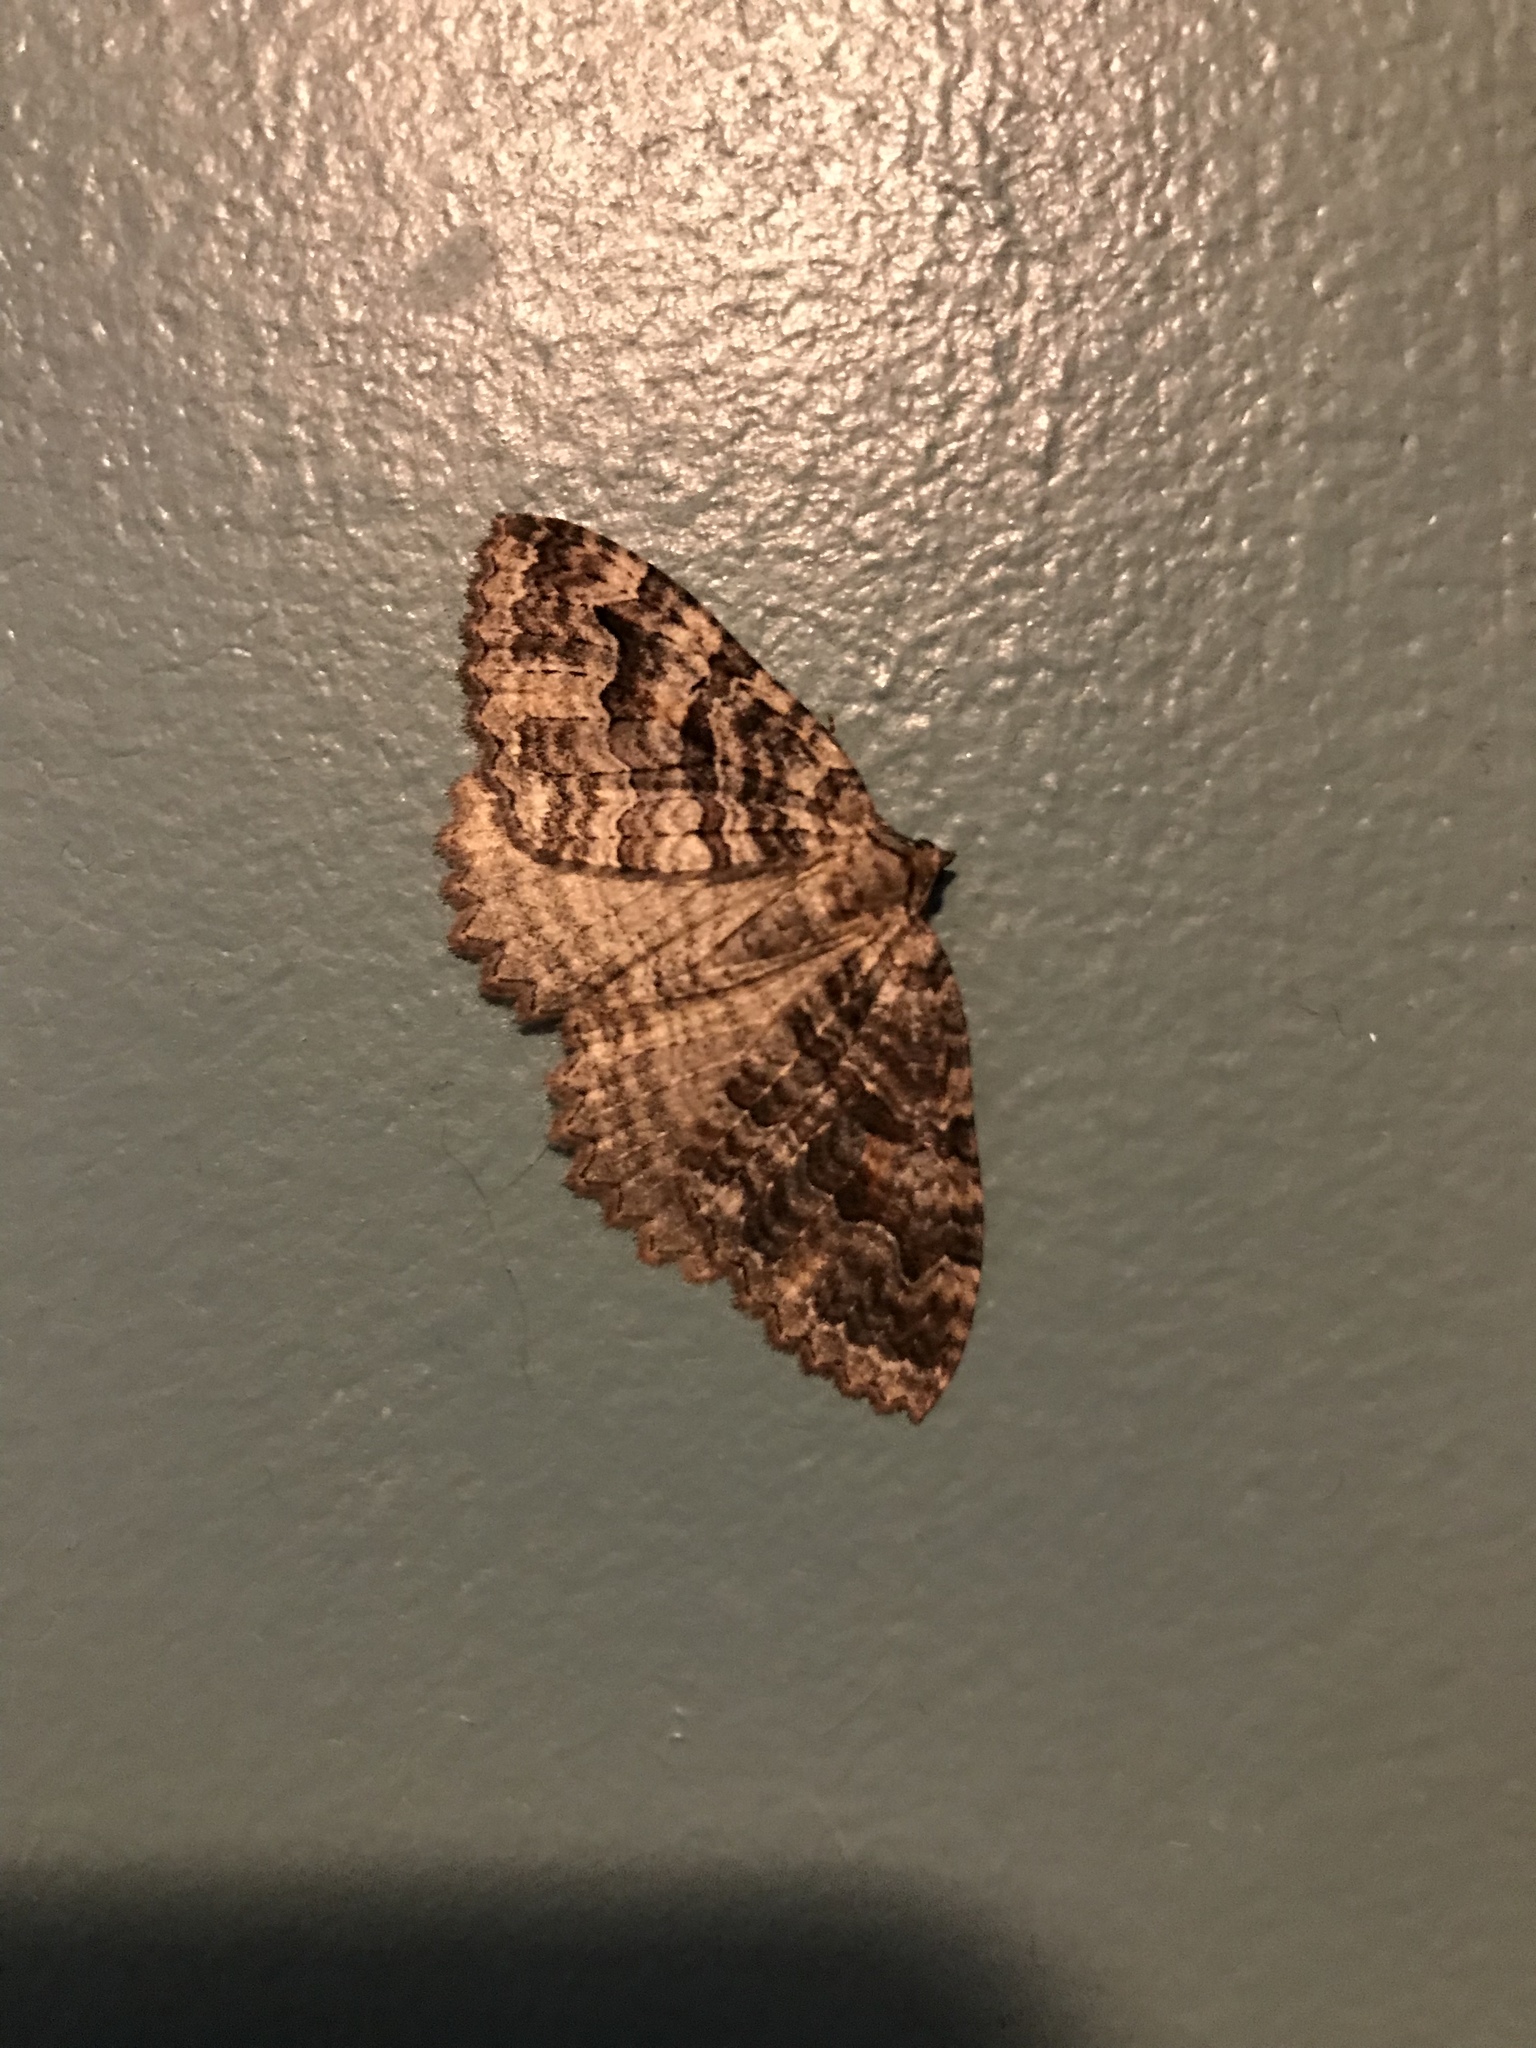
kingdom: Animalia
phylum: Arthropoda
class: Insecta
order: Lepidoptera
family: Geometridae
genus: Triphosa
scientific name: Triphosa haesitata
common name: Tissue moth
